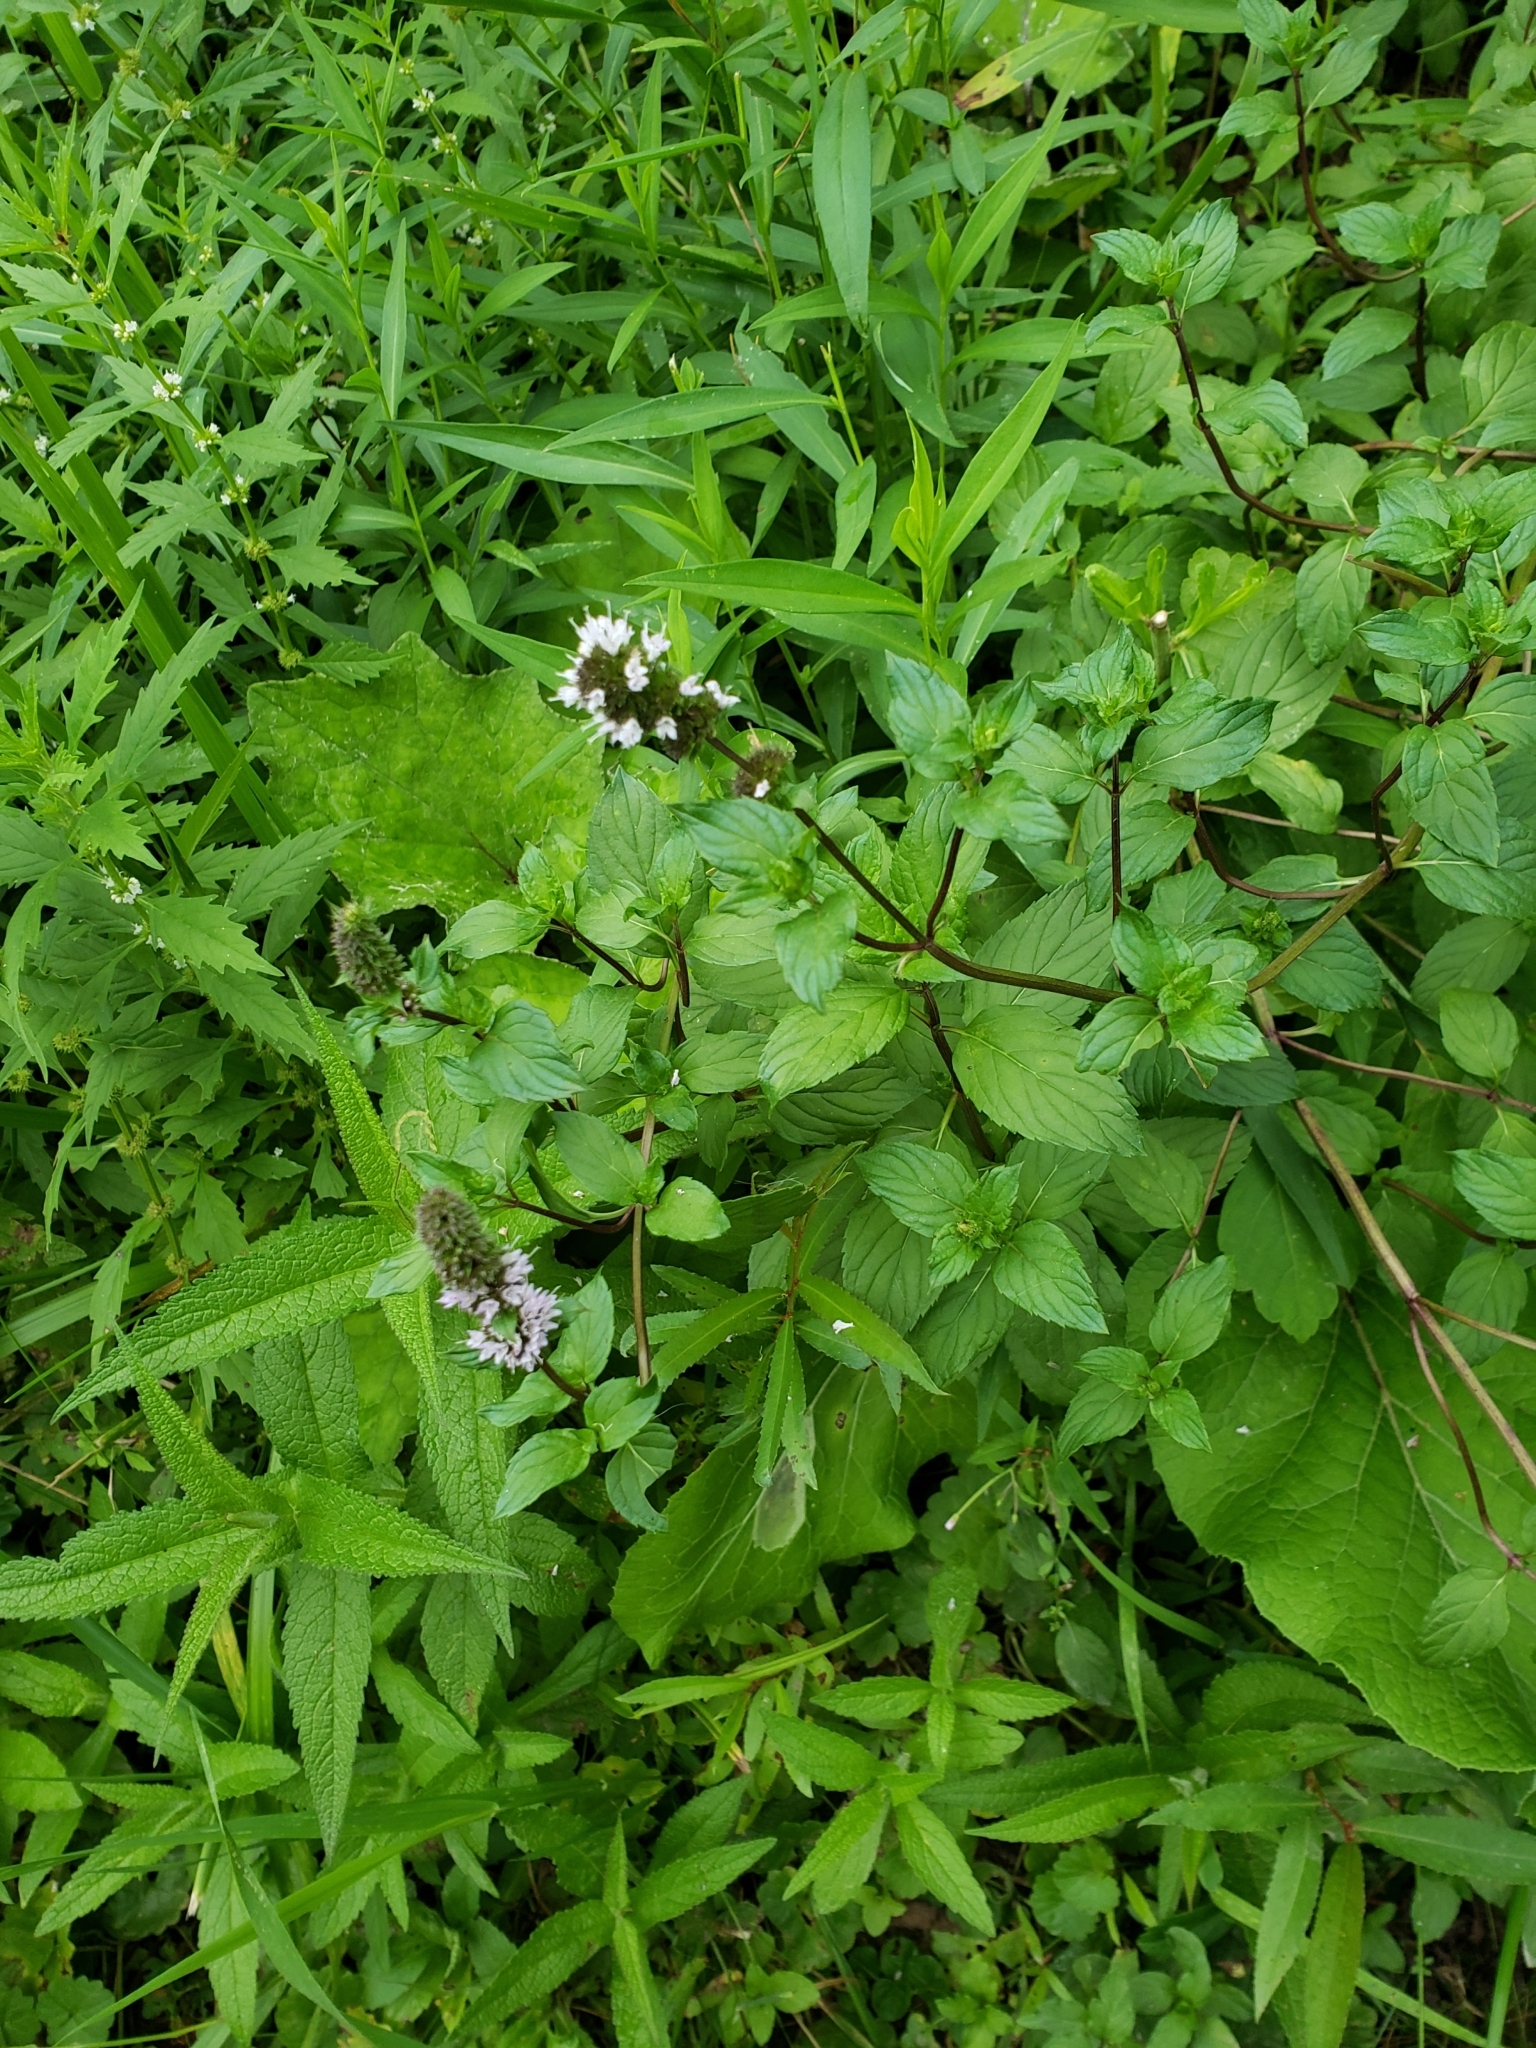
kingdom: Plantae
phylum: Tracheophyta
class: Magnoliopsida
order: Lamiales
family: Lamiaceae
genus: Mentha
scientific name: Mentha piperita
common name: Peppermint
